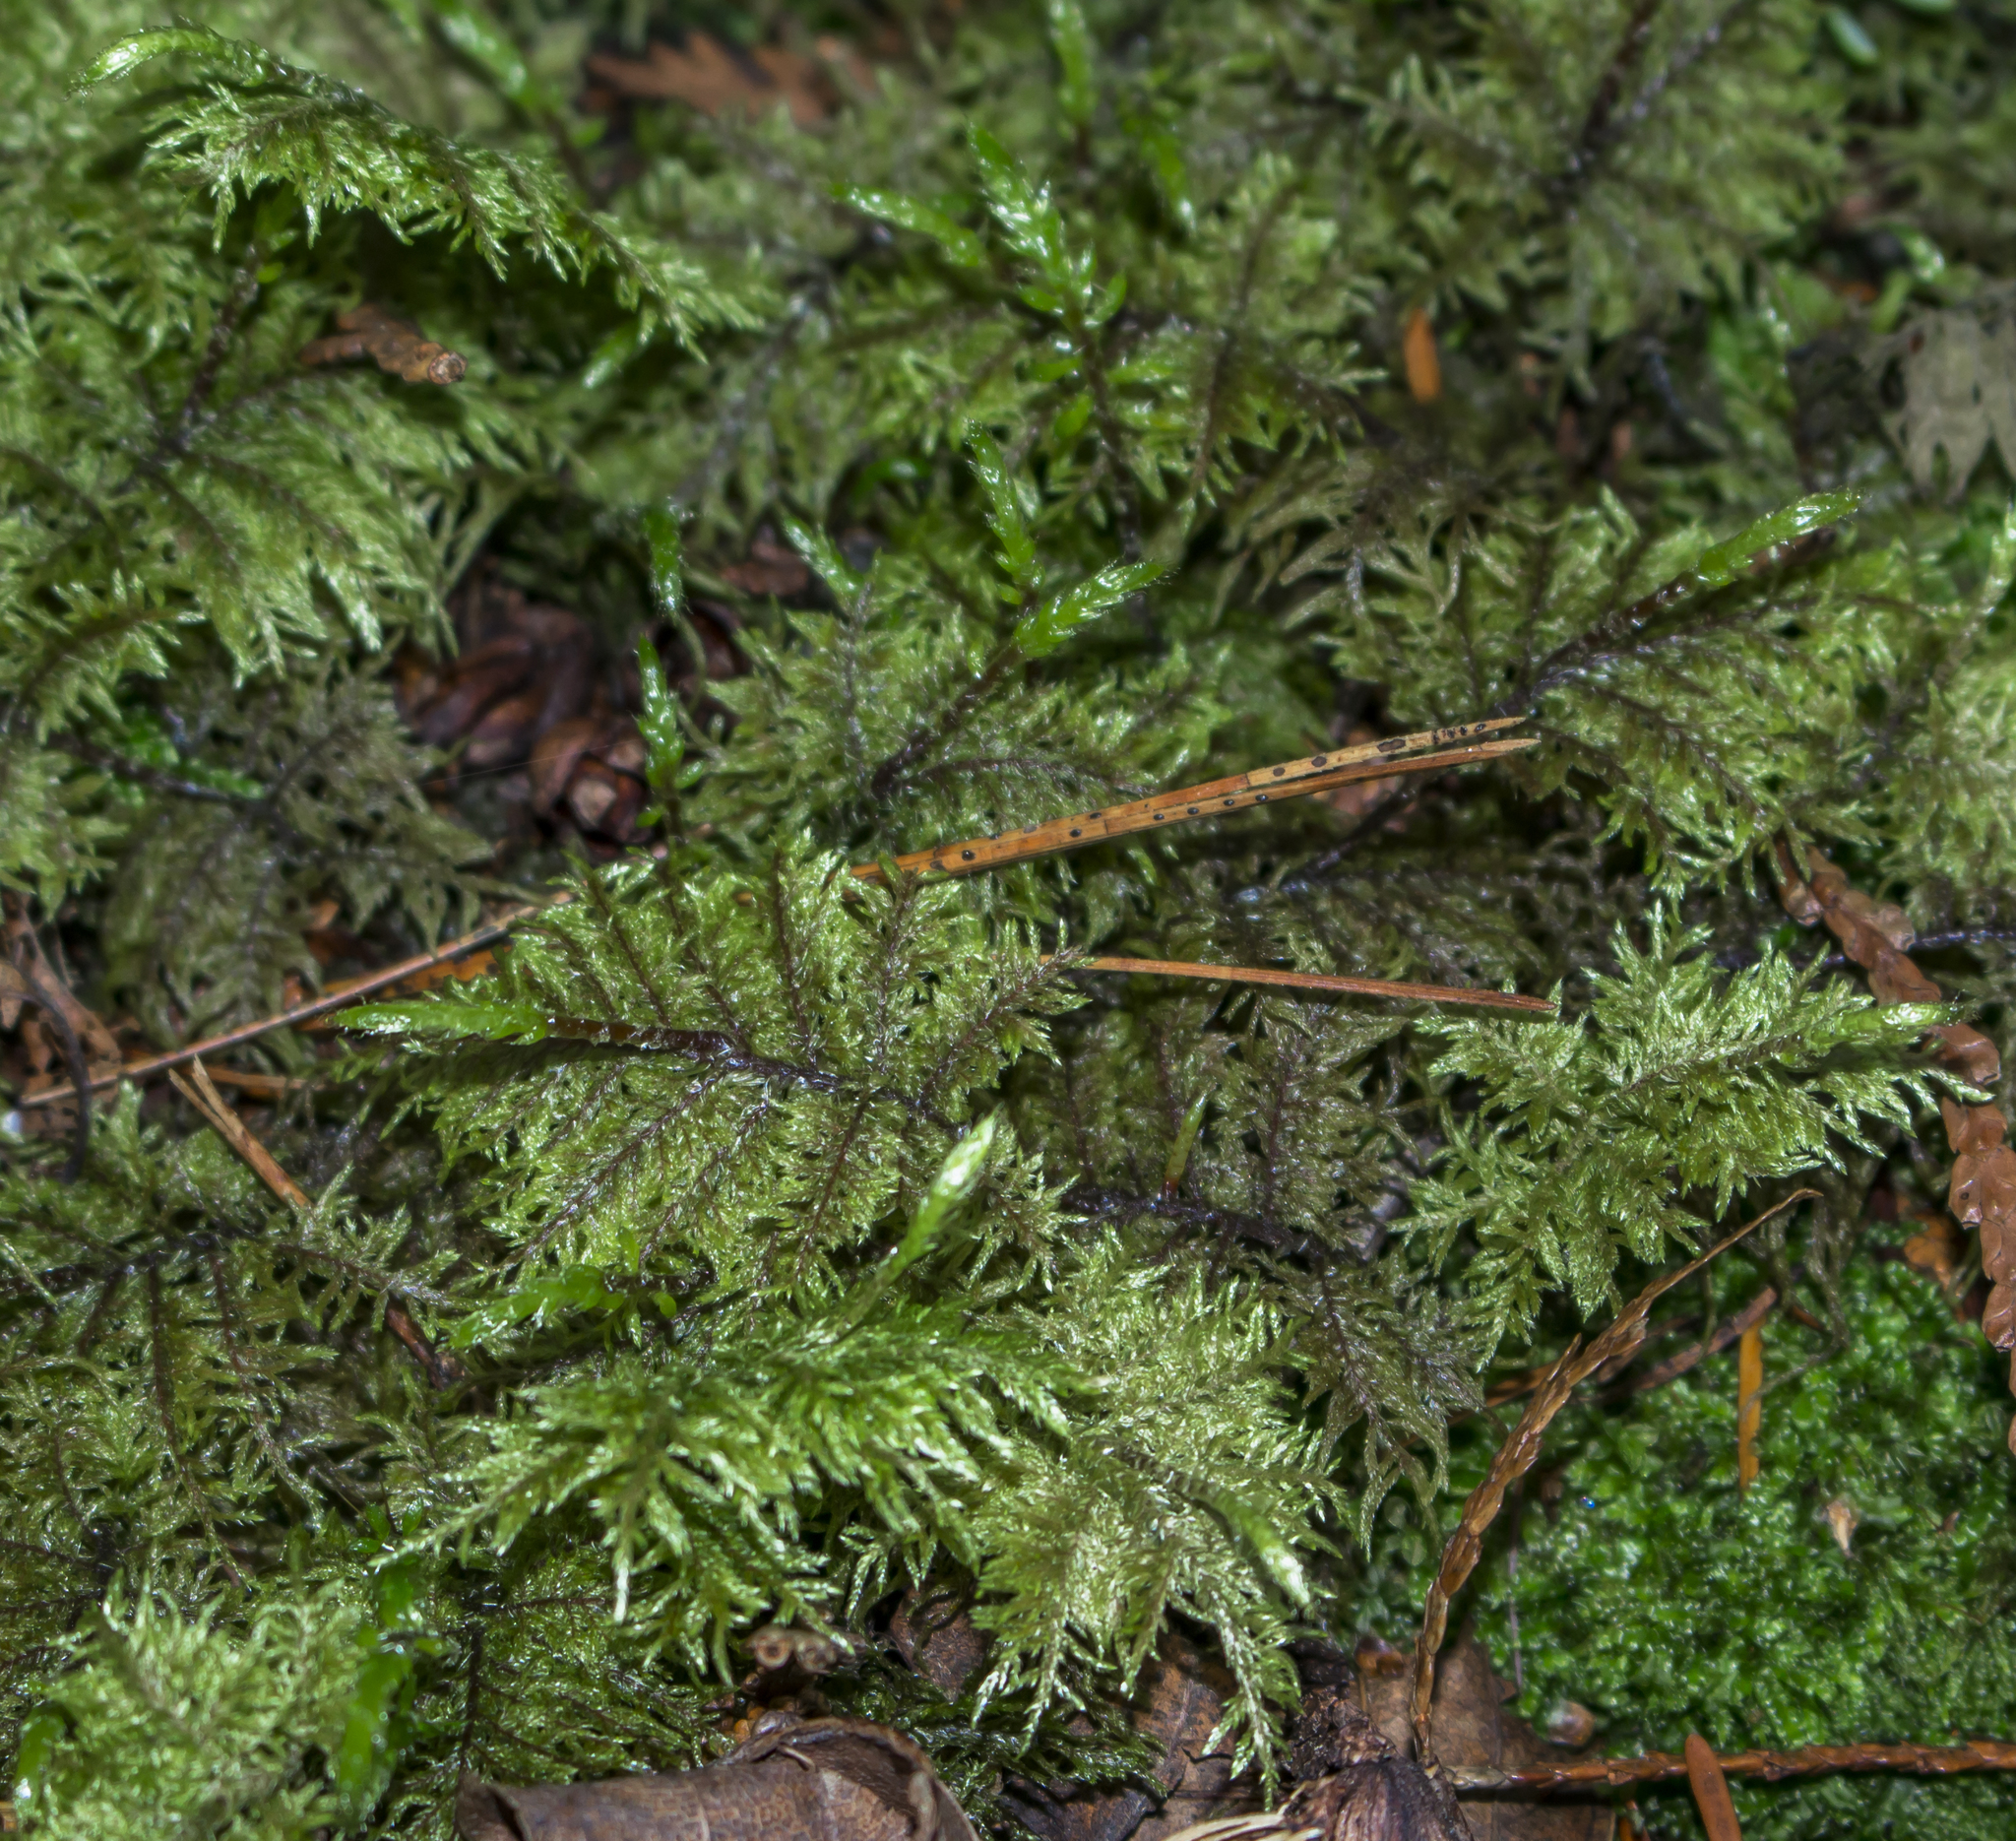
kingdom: Plantae
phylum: Bryophyta
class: Bryopsida
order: Hypnales
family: Hylocomiaceae
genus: Hylocomium
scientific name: Hylocomium splendens
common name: Stairstep moss
